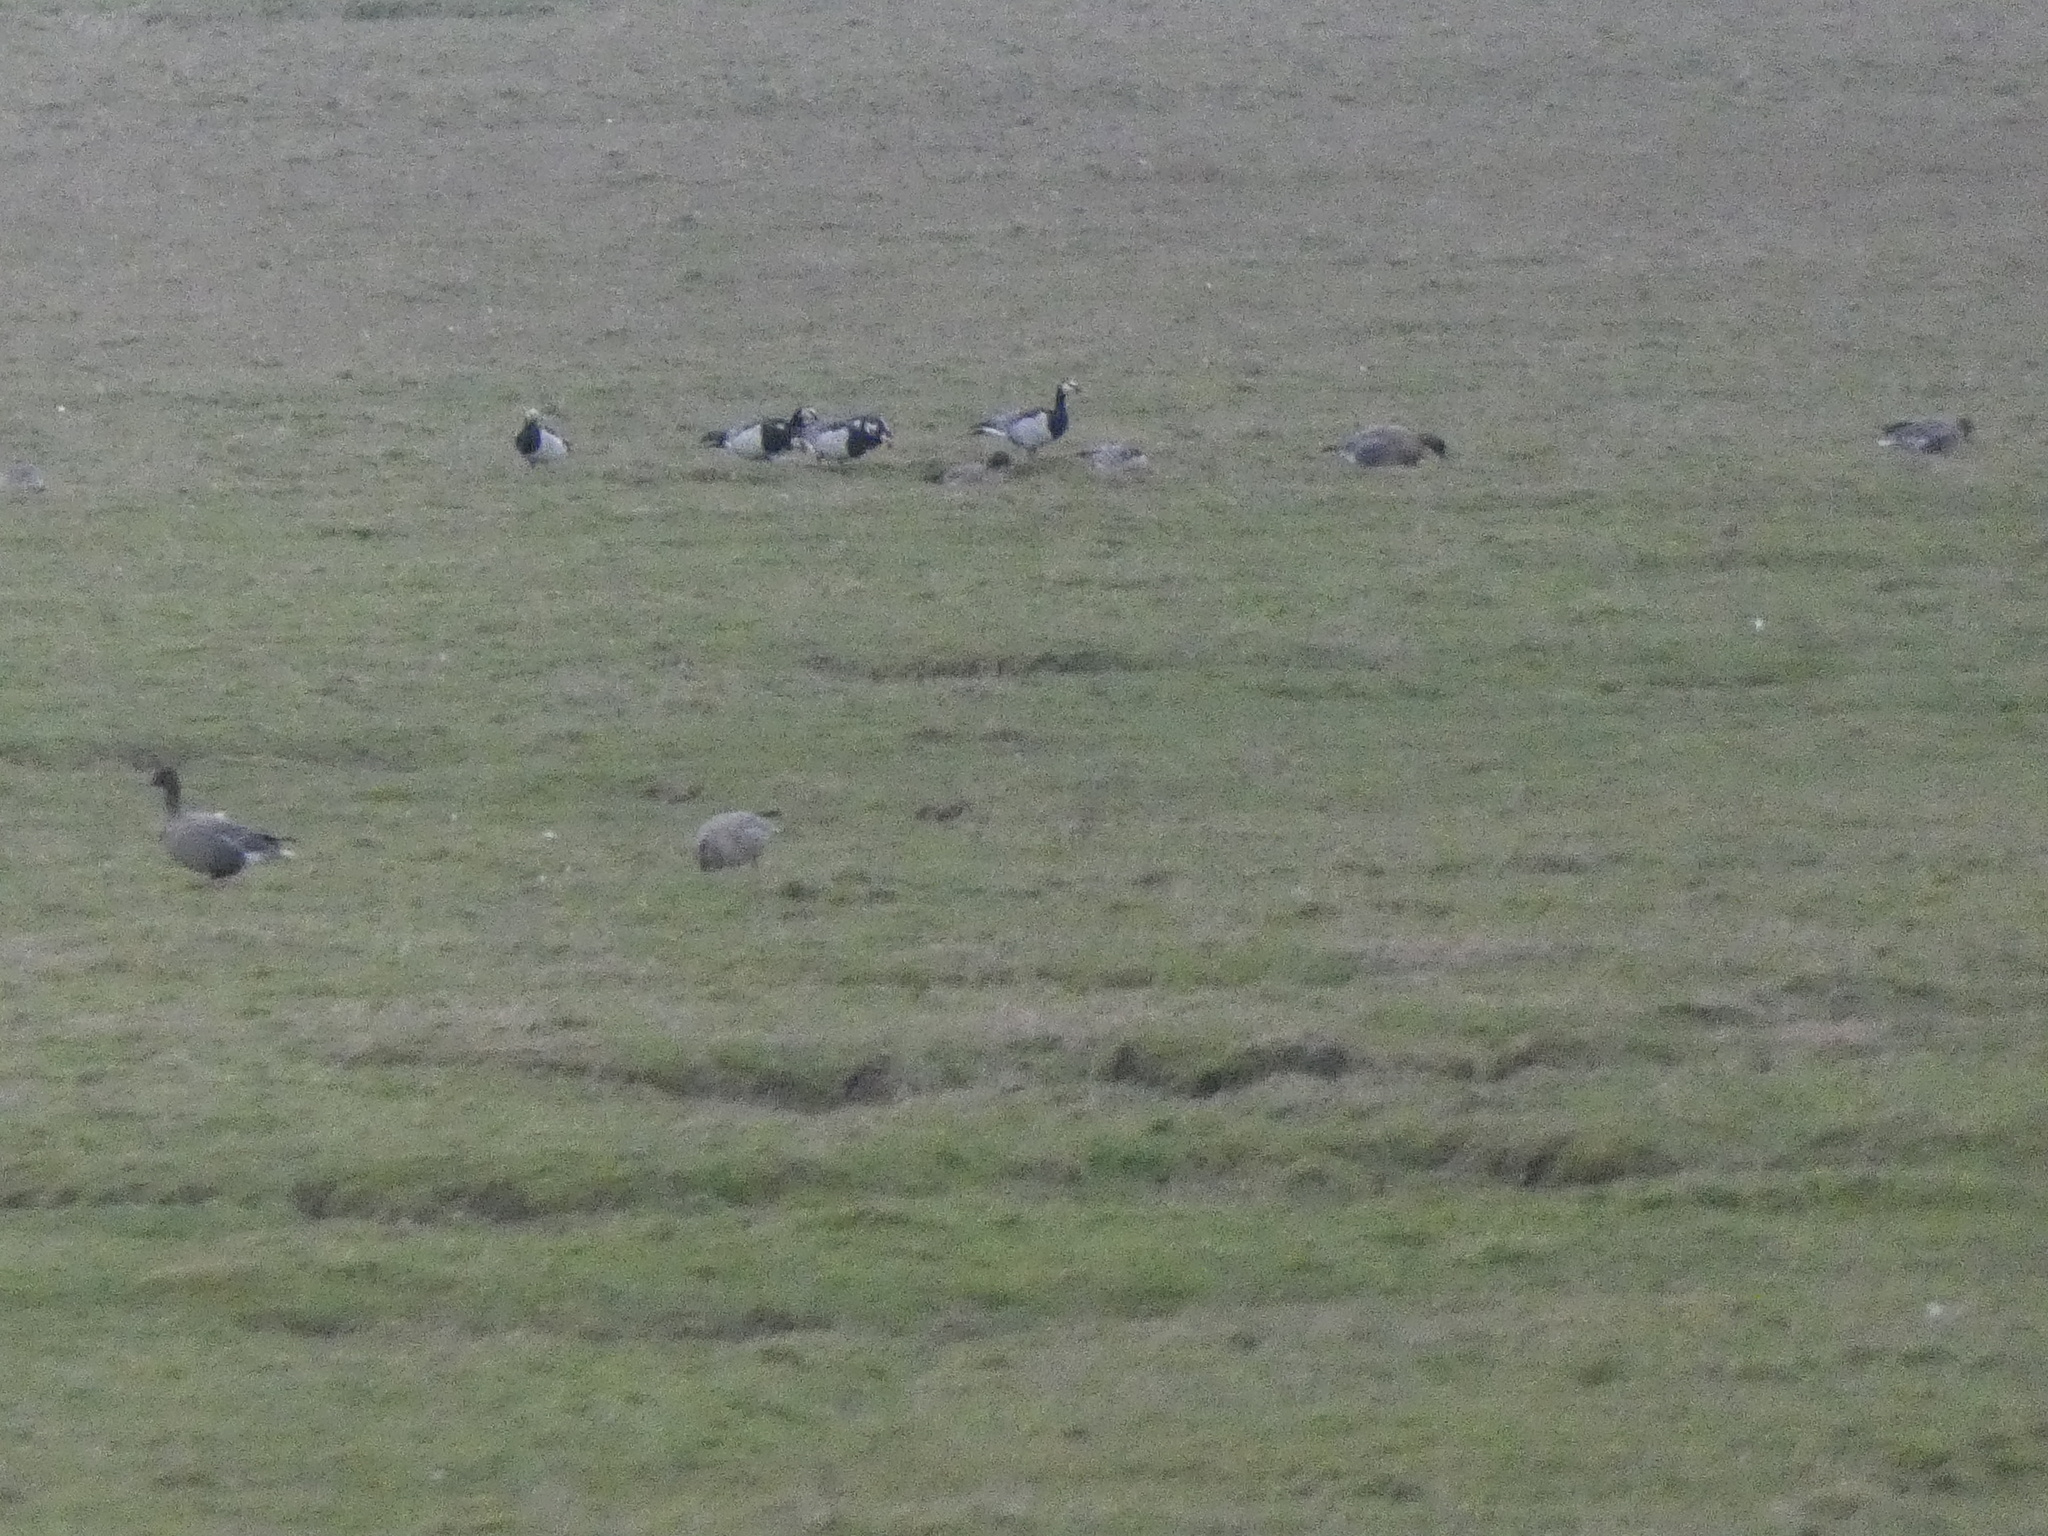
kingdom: Animalia
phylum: Chordata
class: Aves
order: Anseriformes
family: Anatidae
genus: Branta
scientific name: Branta leucopsis
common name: Barnacle goose
